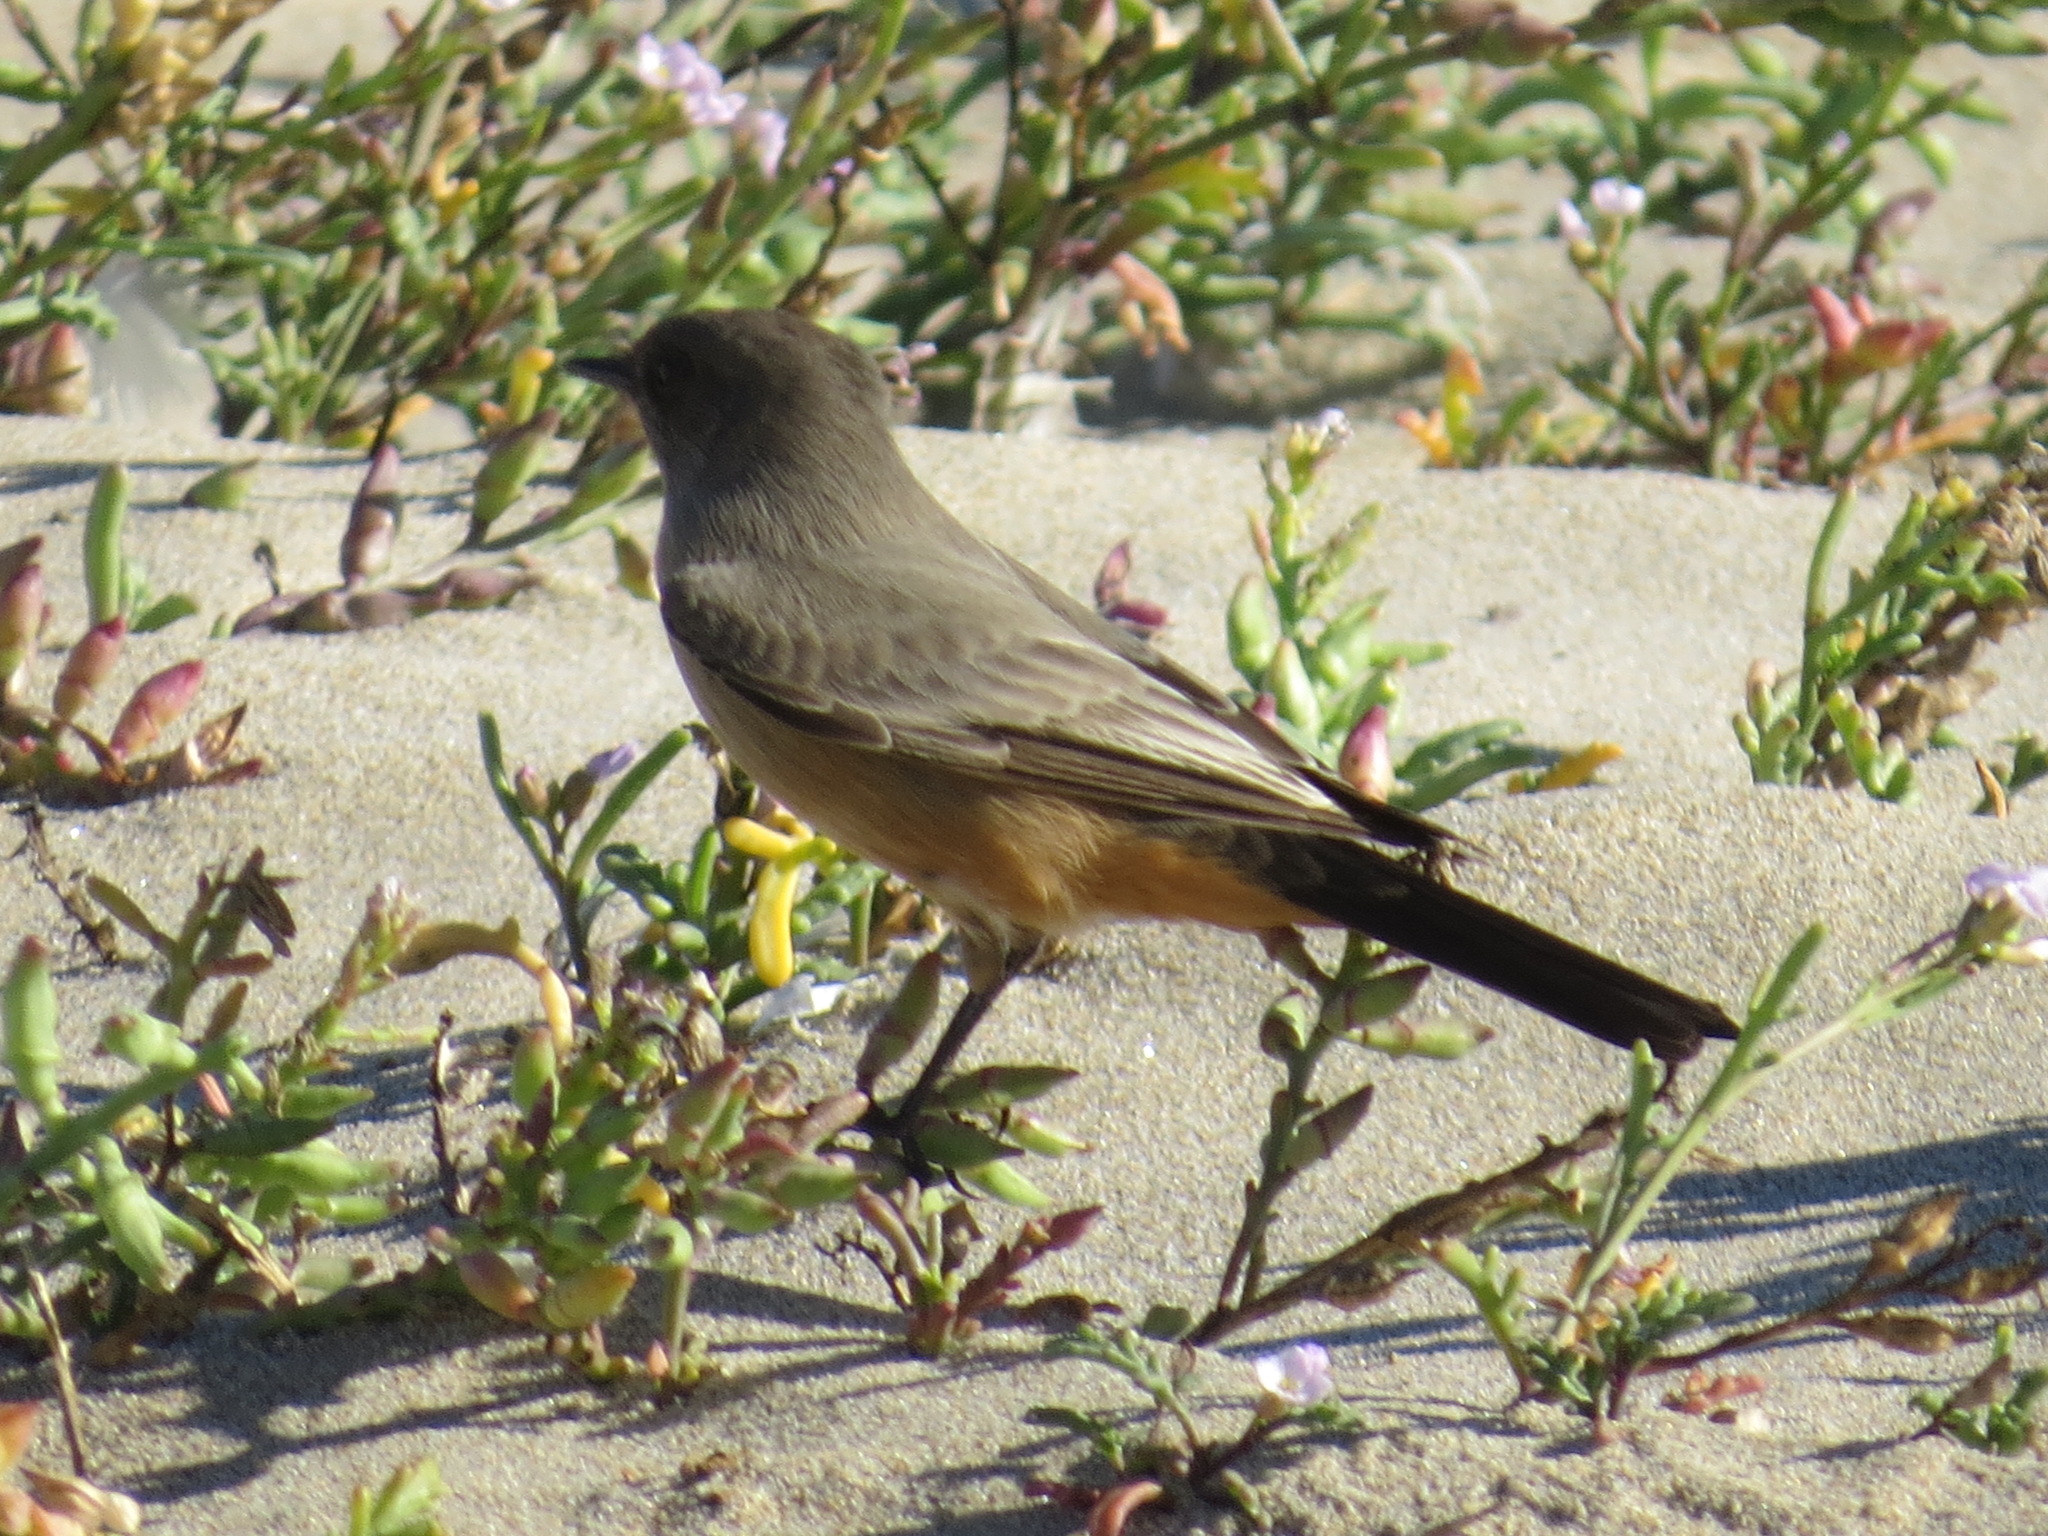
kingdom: Animalia
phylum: Chordata
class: Aves
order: Passeriformes
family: Tyrannidae
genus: Sayornis
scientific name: Sayornis saya
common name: Say's phoebe
